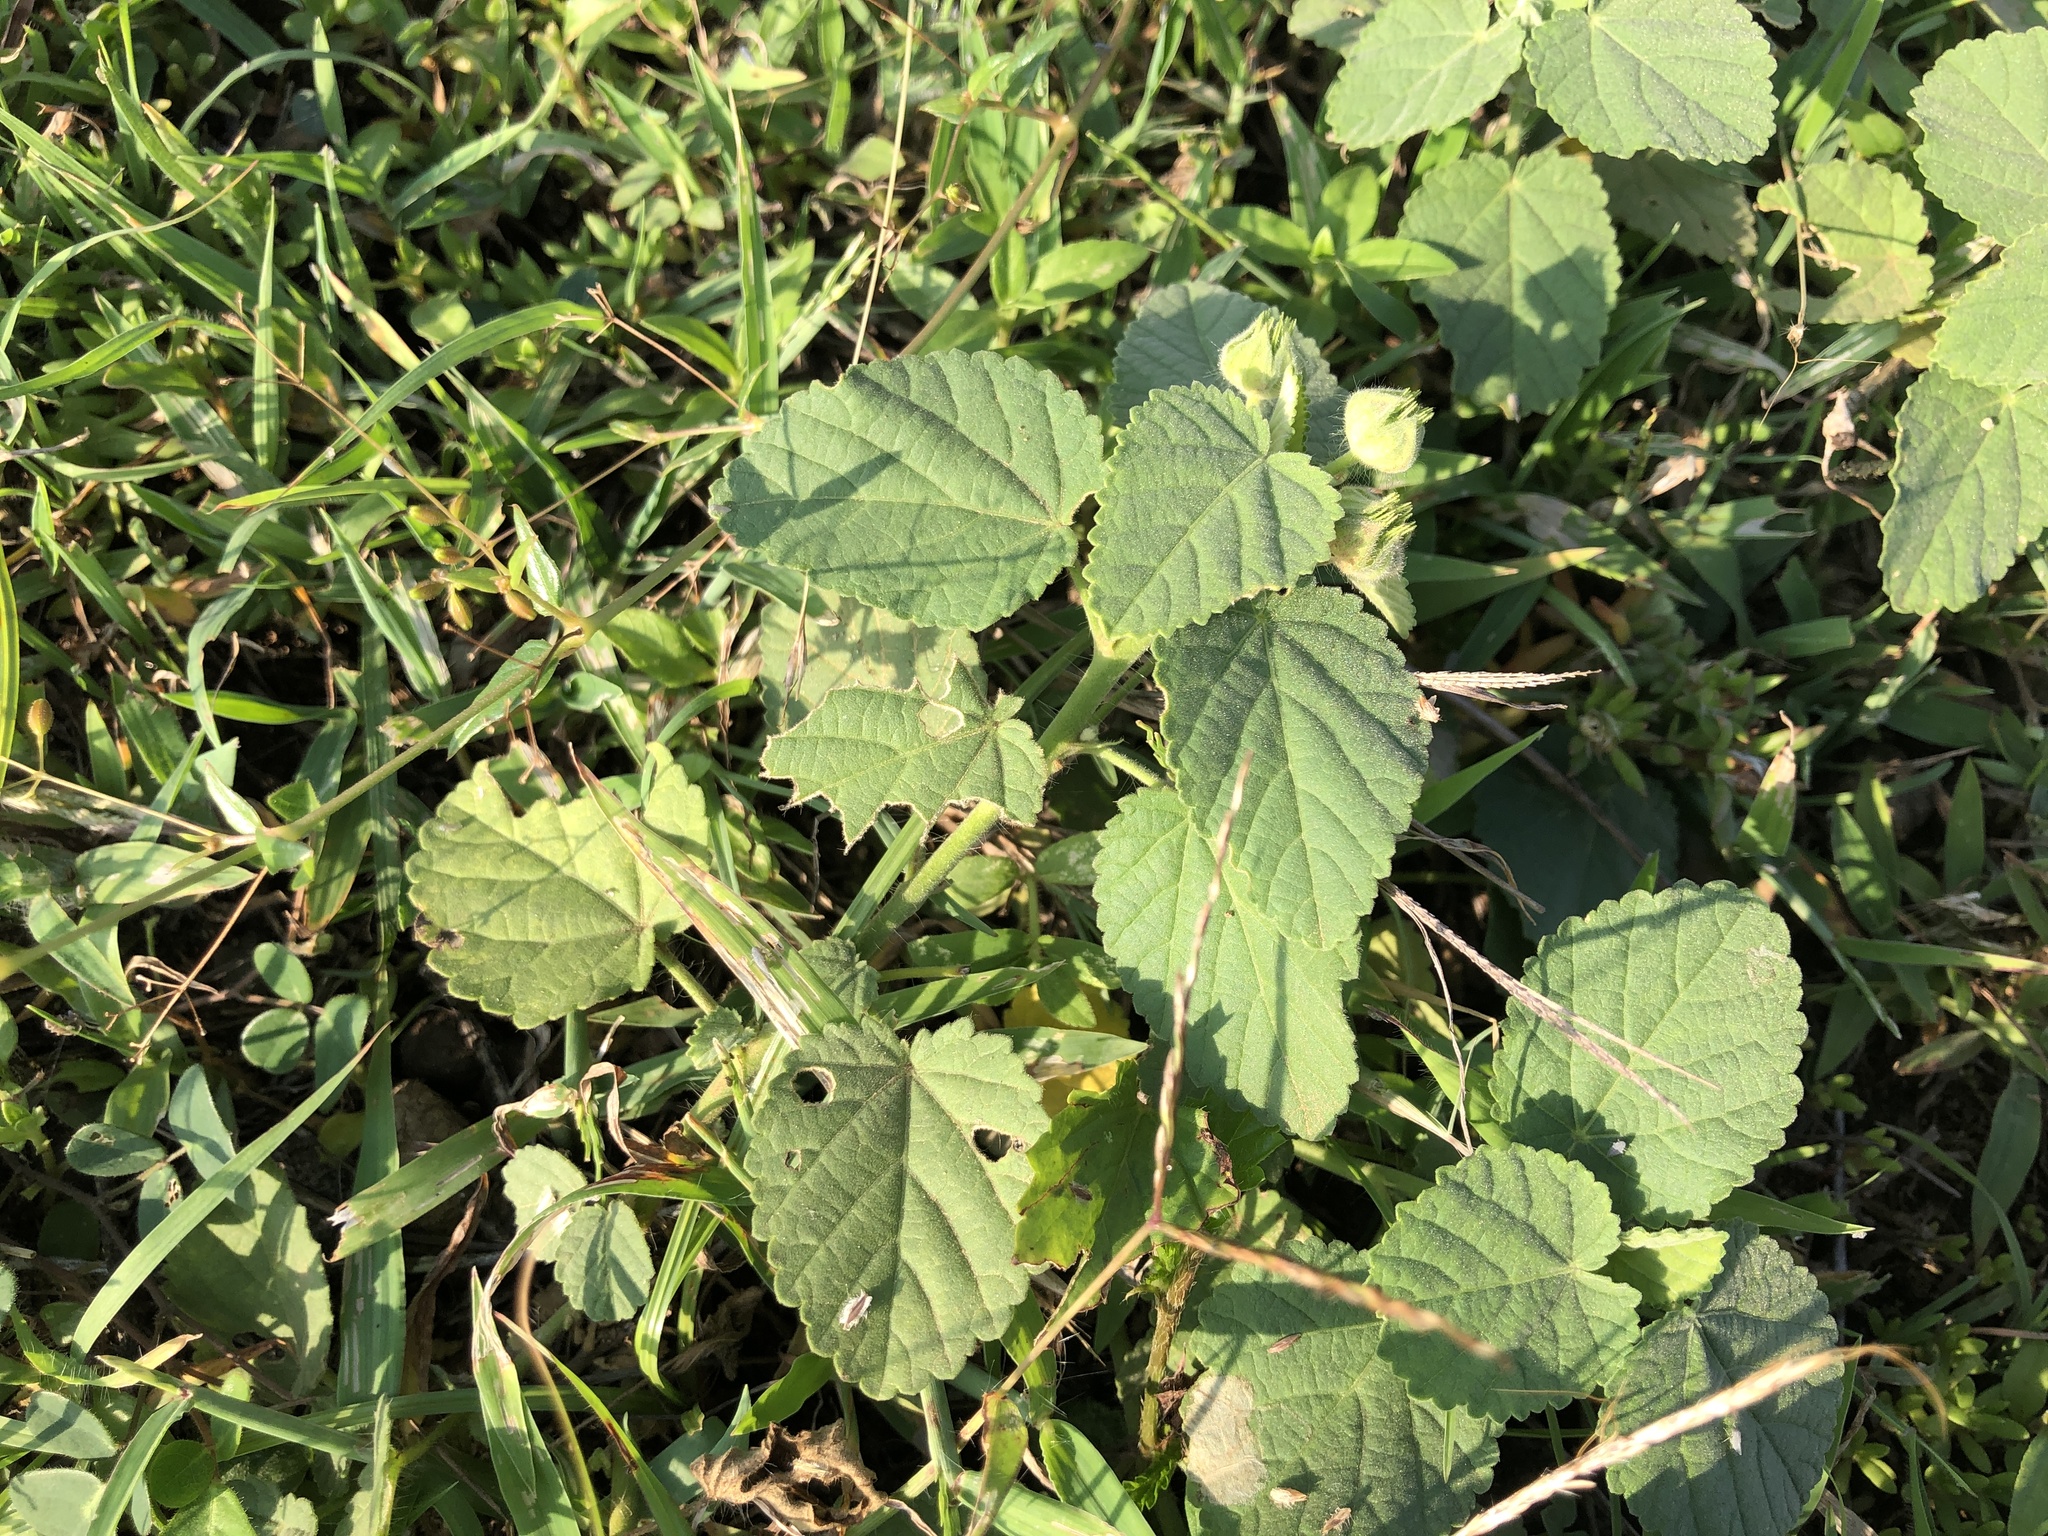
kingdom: Plantae
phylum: Tracheophyta
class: Magnoliopsida
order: Malvales
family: Malvaceae
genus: Sida
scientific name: Sida cordifolia
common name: Ilima
